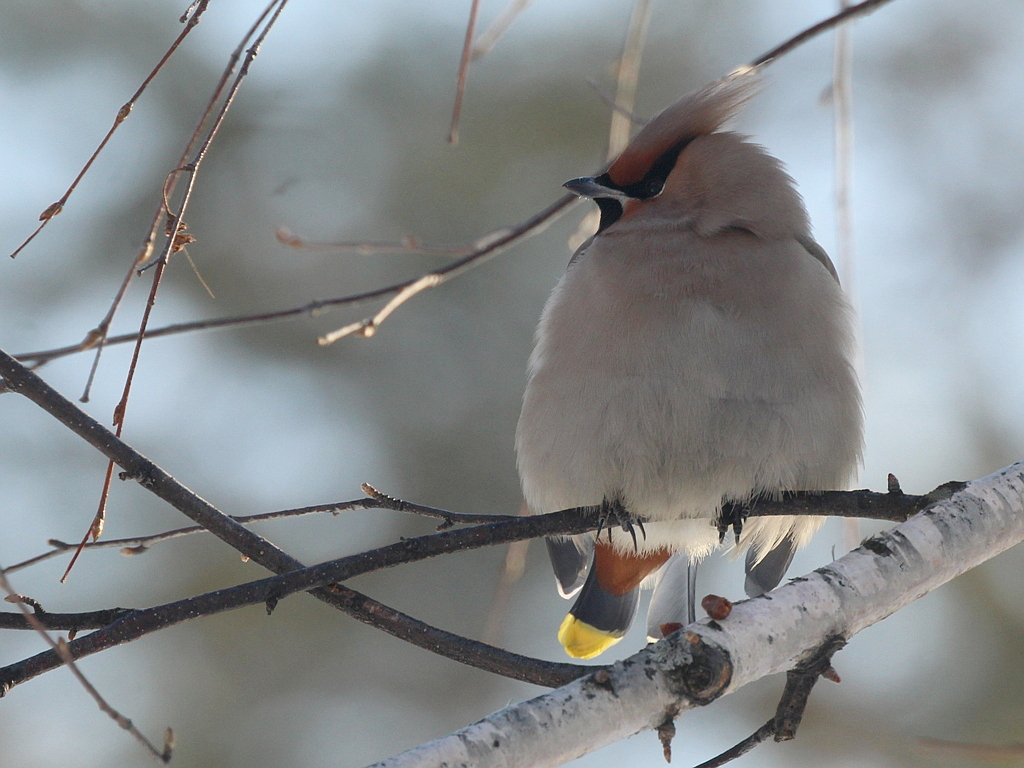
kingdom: Animalia
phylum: Chordata
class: Aves
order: Passeriformes
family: Bombycillidae
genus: Bombycilla
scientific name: Bombycilla garrulus
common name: Bohemian waxwing
